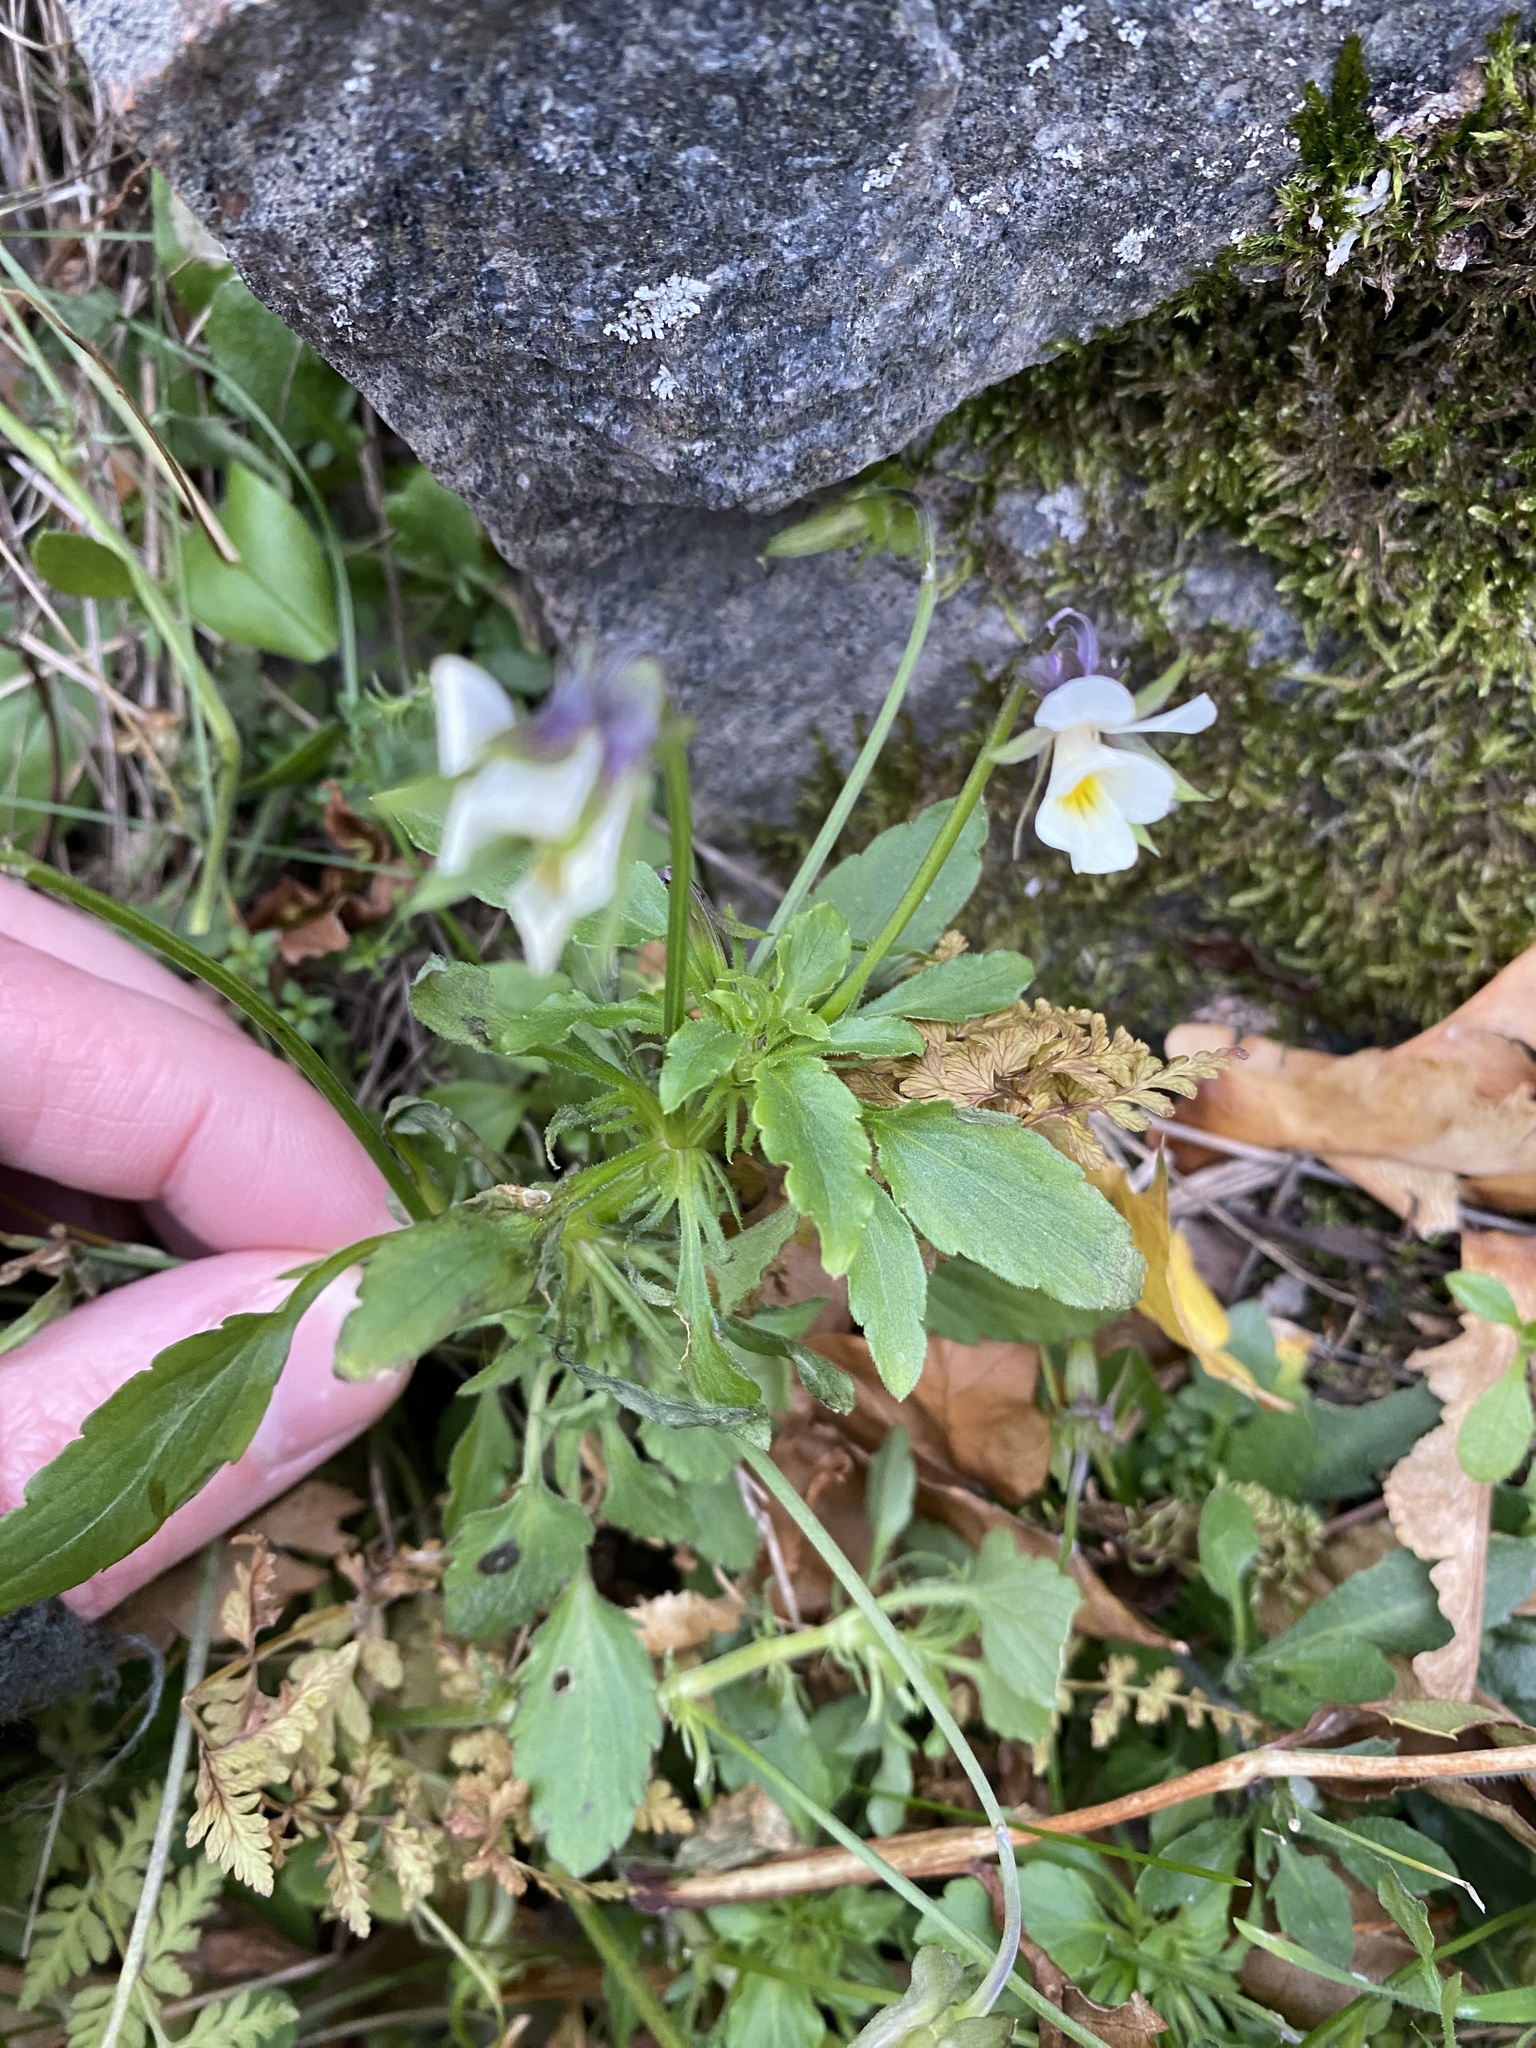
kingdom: Plantae
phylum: Tracheophyta
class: Magnoliopsida
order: Malpighiales
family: Violaceae
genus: Viola
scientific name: Viola arvensis
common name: Field pansy
